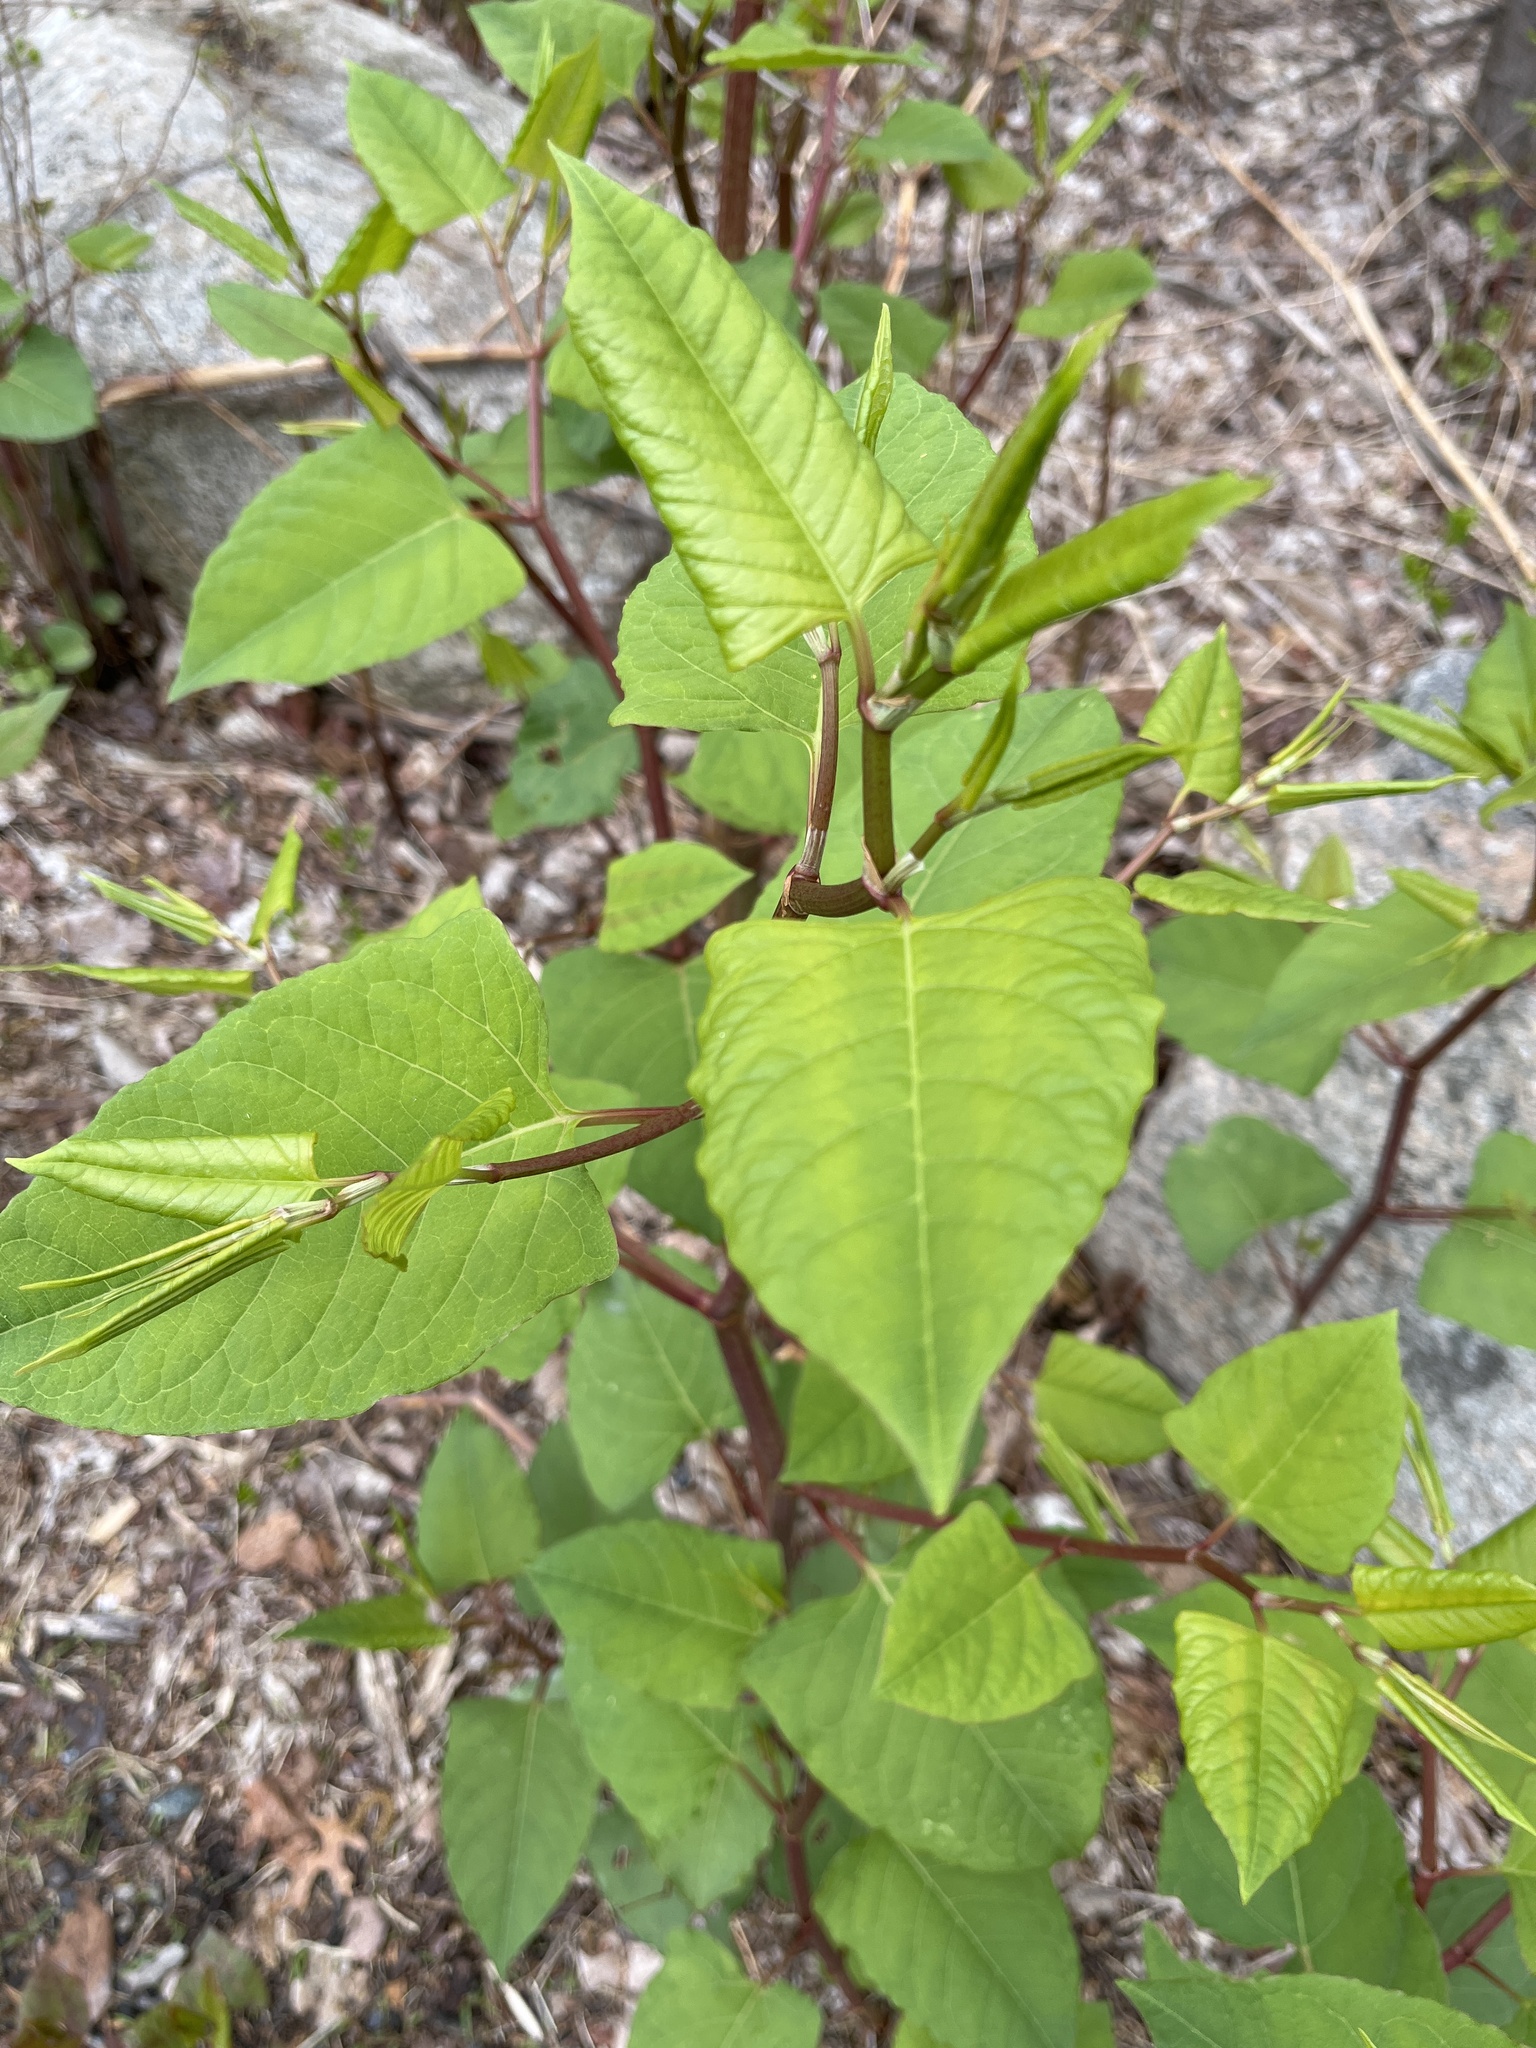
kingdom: Plantae
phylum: Tracheophyta
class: Magnoliopsida
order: Caryophyllales
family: Polygonaceae
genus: Reynoutria
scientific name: Reynoutria japonica
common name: Japanese knotweed
